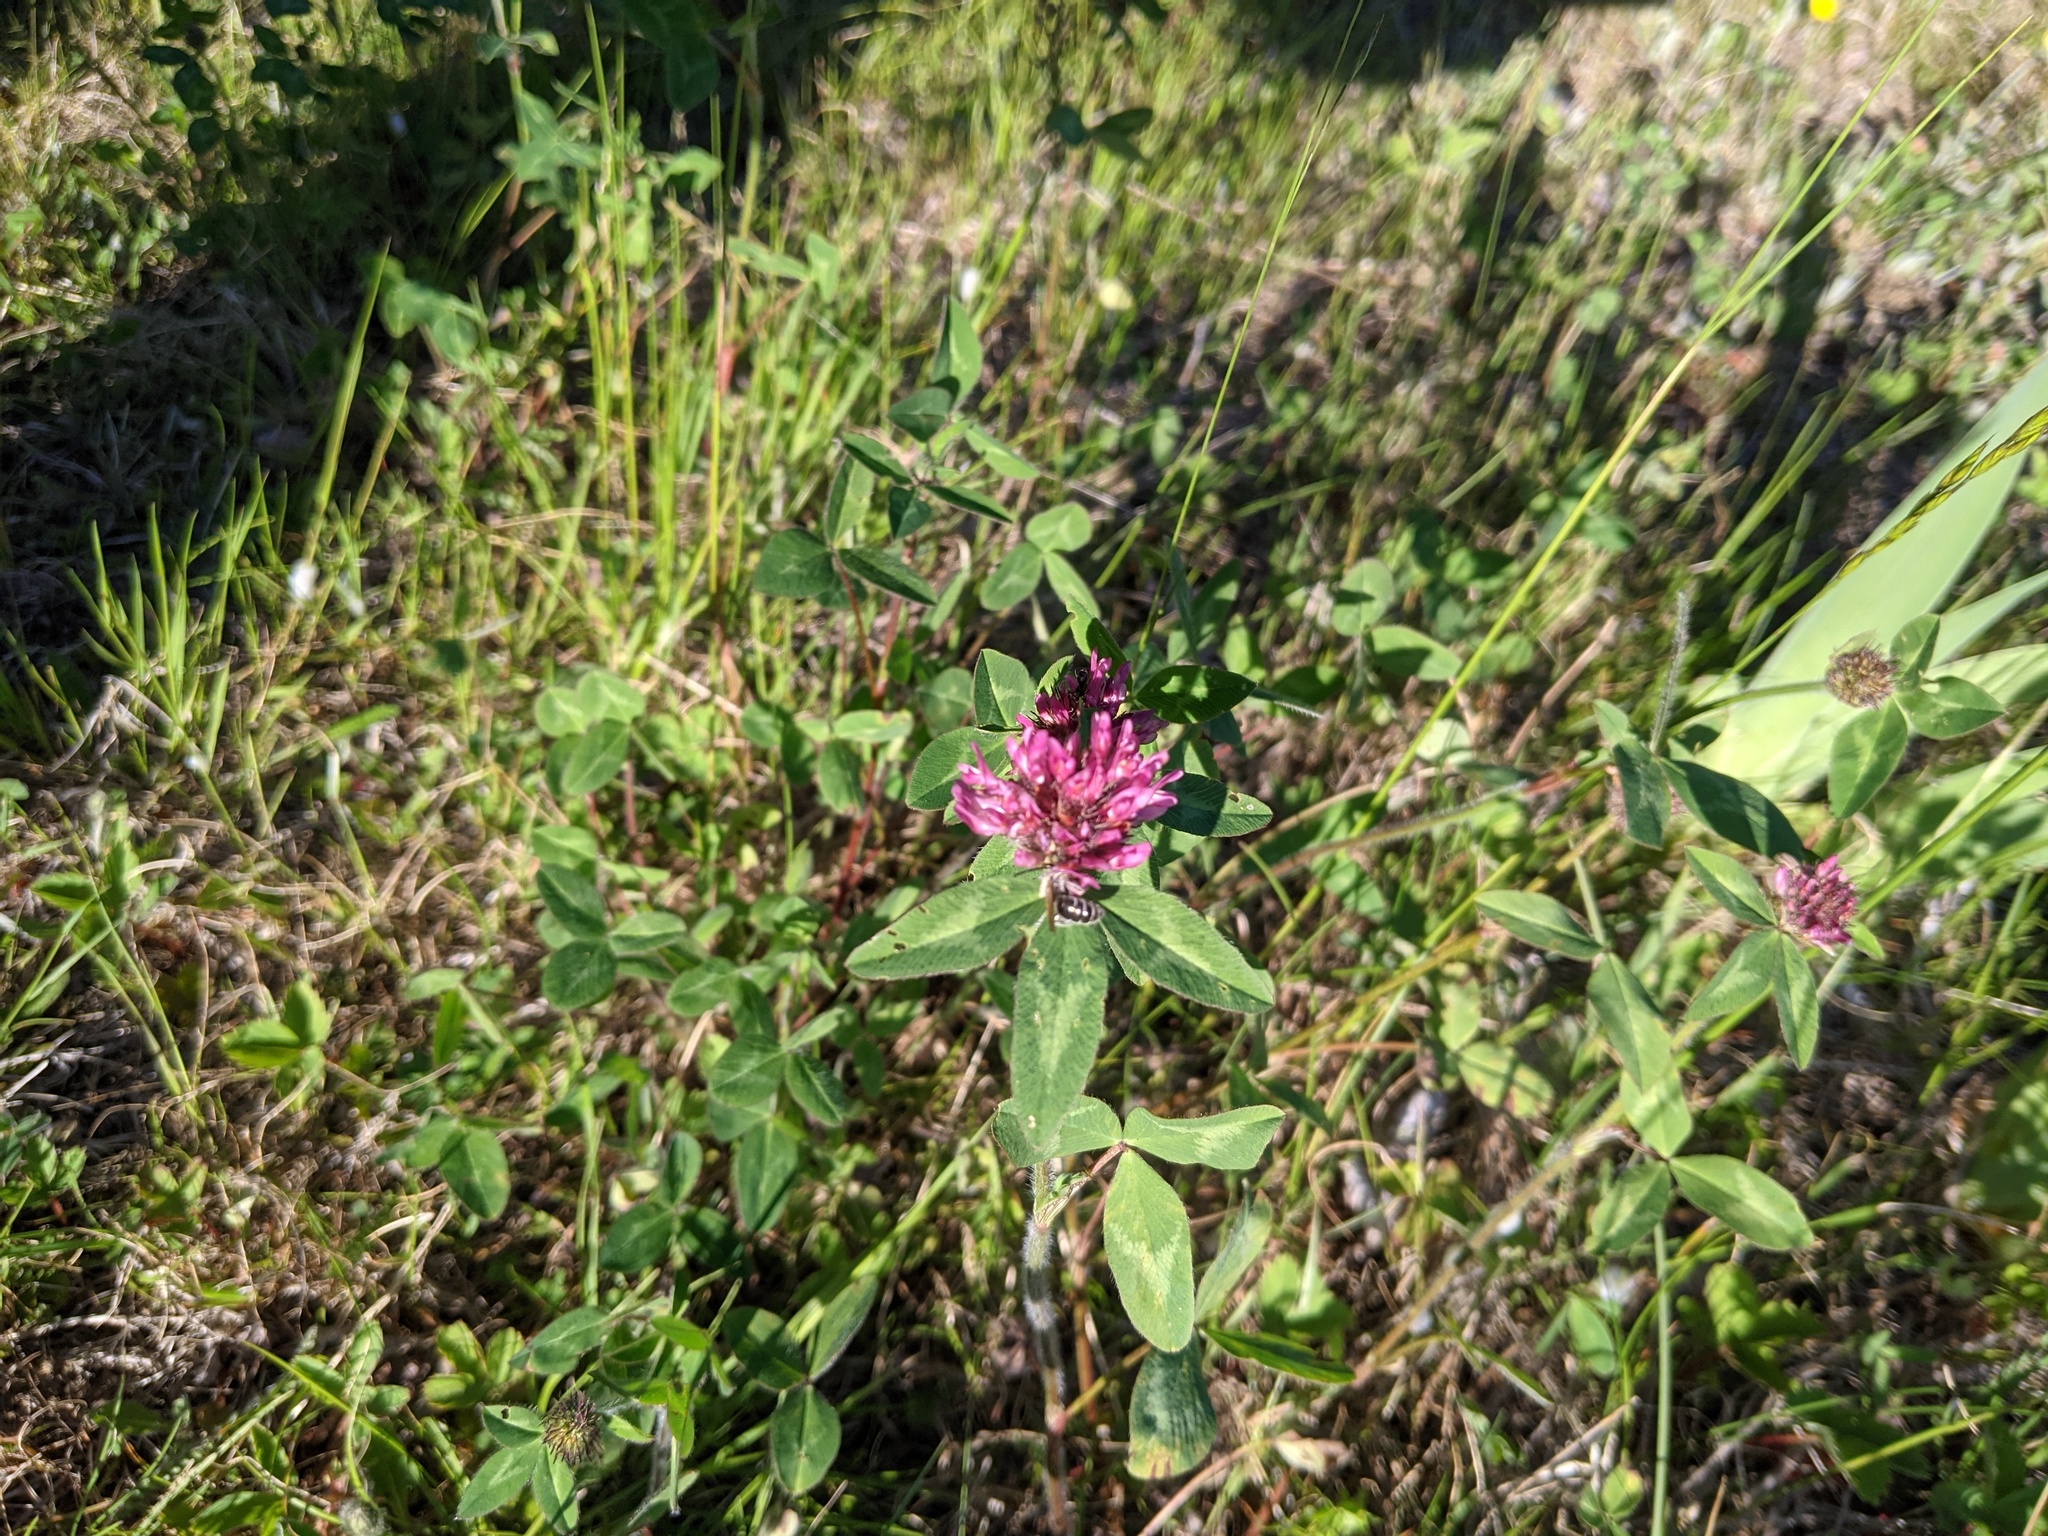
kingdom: Animalia
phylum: Arthropoda
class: Insecta
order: Hymenoptera
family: Andrenidae
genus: Andrena
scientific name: Andrena wilkella
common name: Wilke's mining bee
